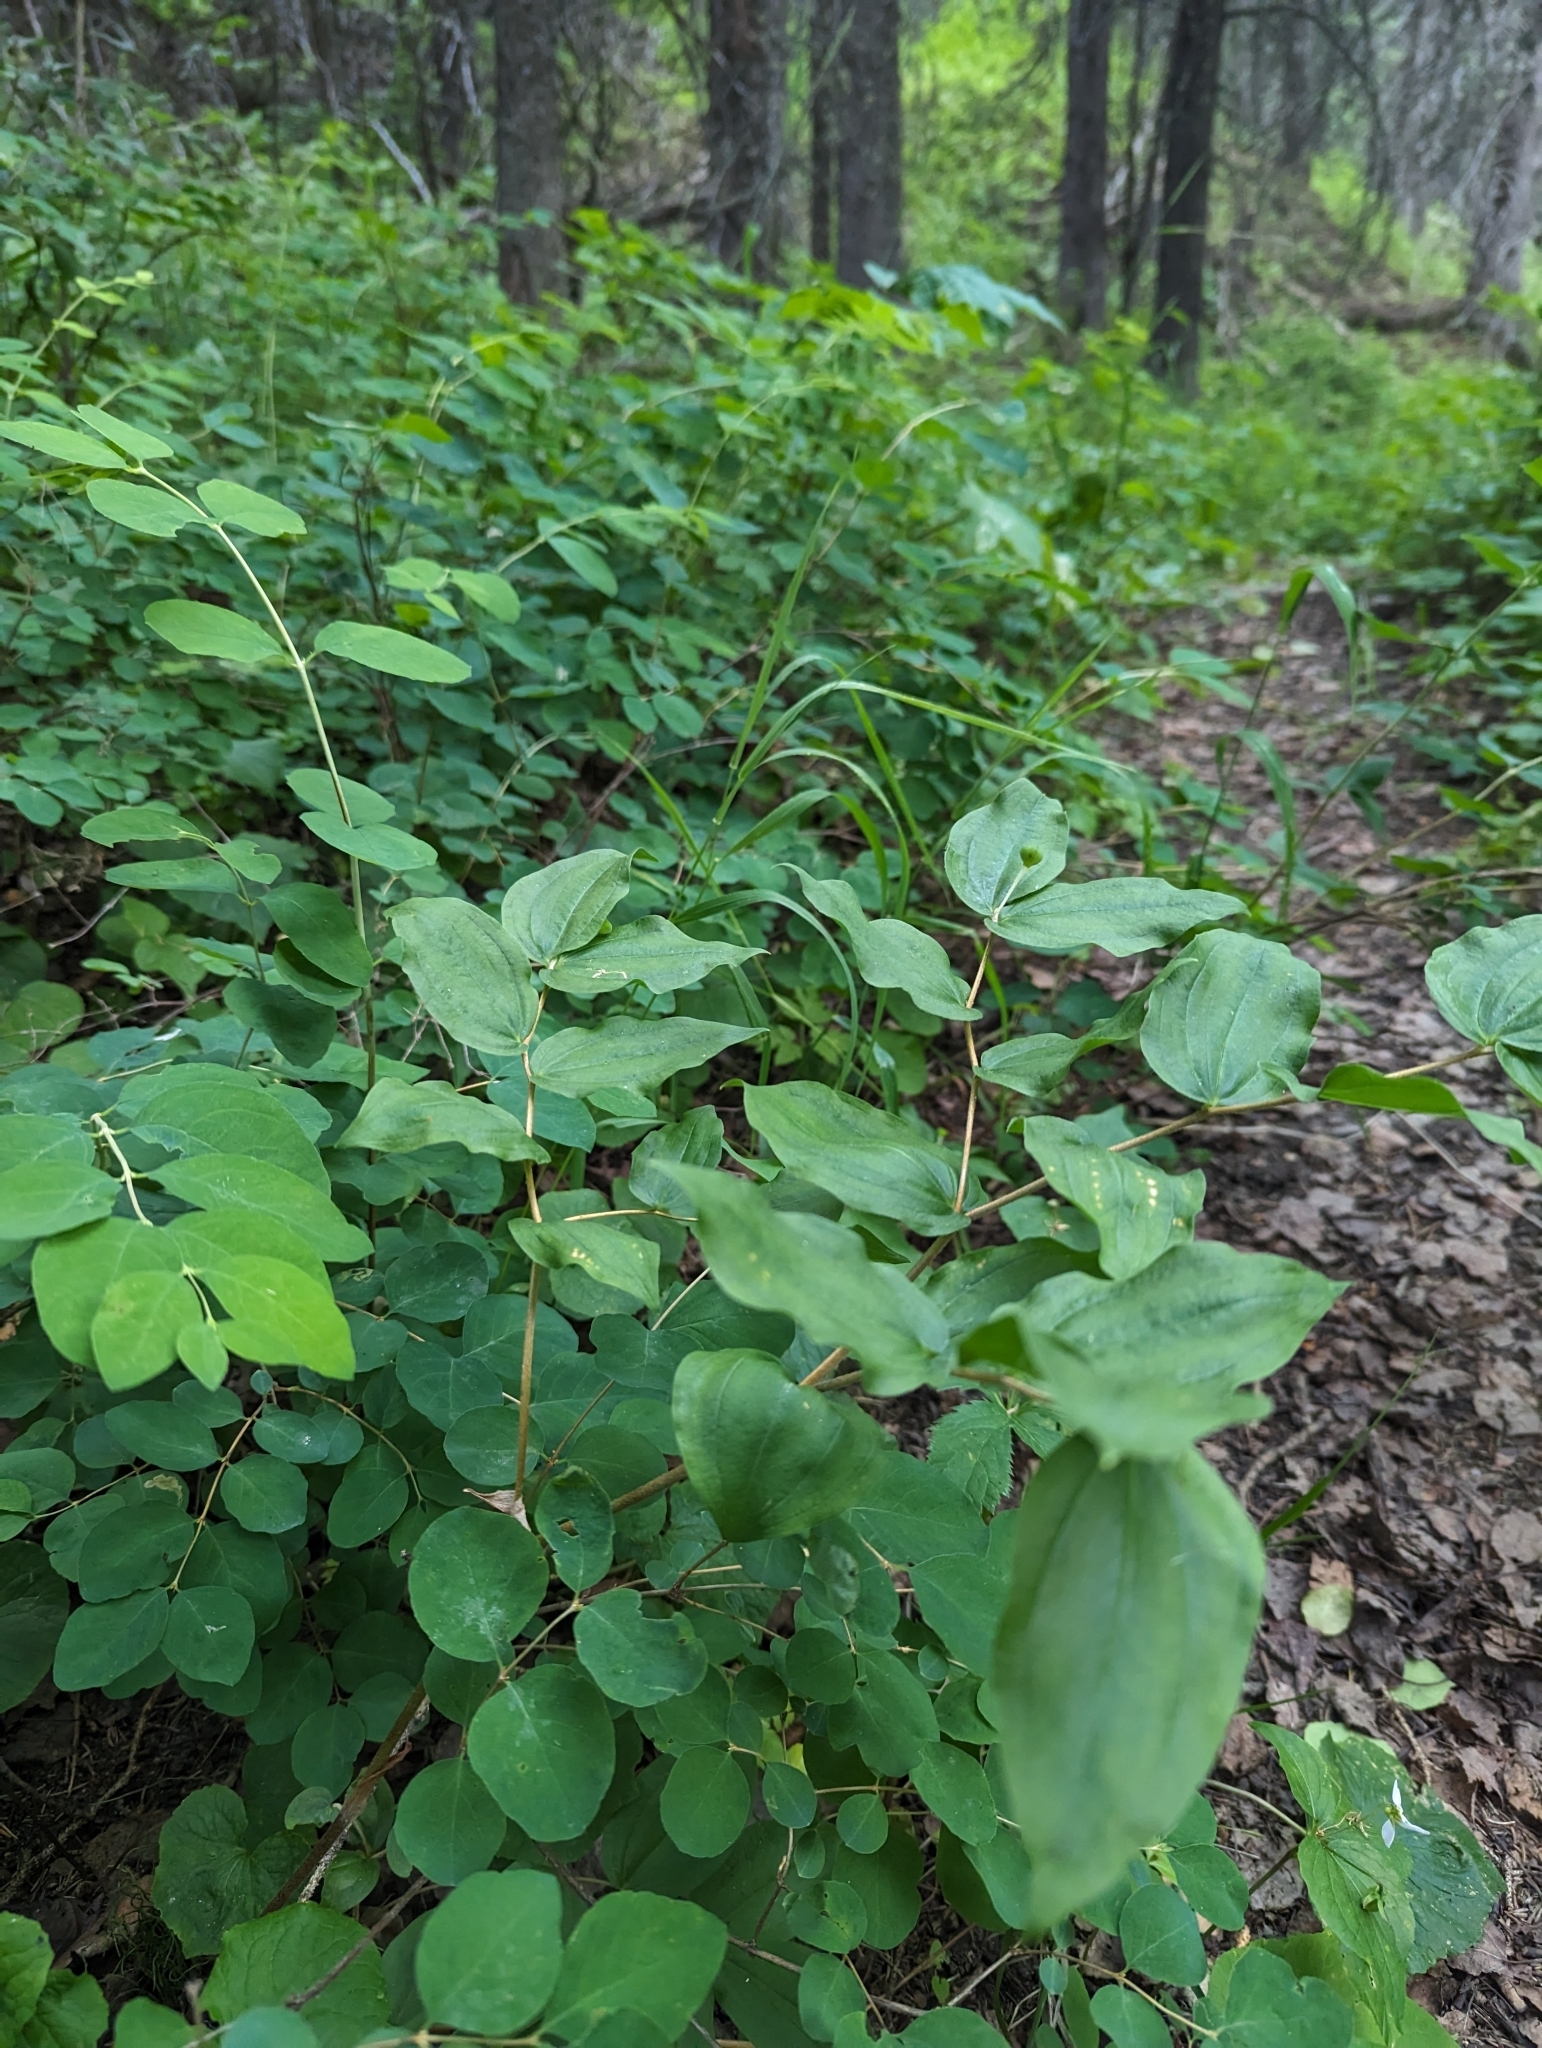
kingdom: Plantae
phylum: Tracheophyta
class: Liliopsida
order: Liliales
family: Liliaceae
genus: Prosartes
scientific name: Prosartes trachycarpa
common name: Rough-fruit fairy-bells
